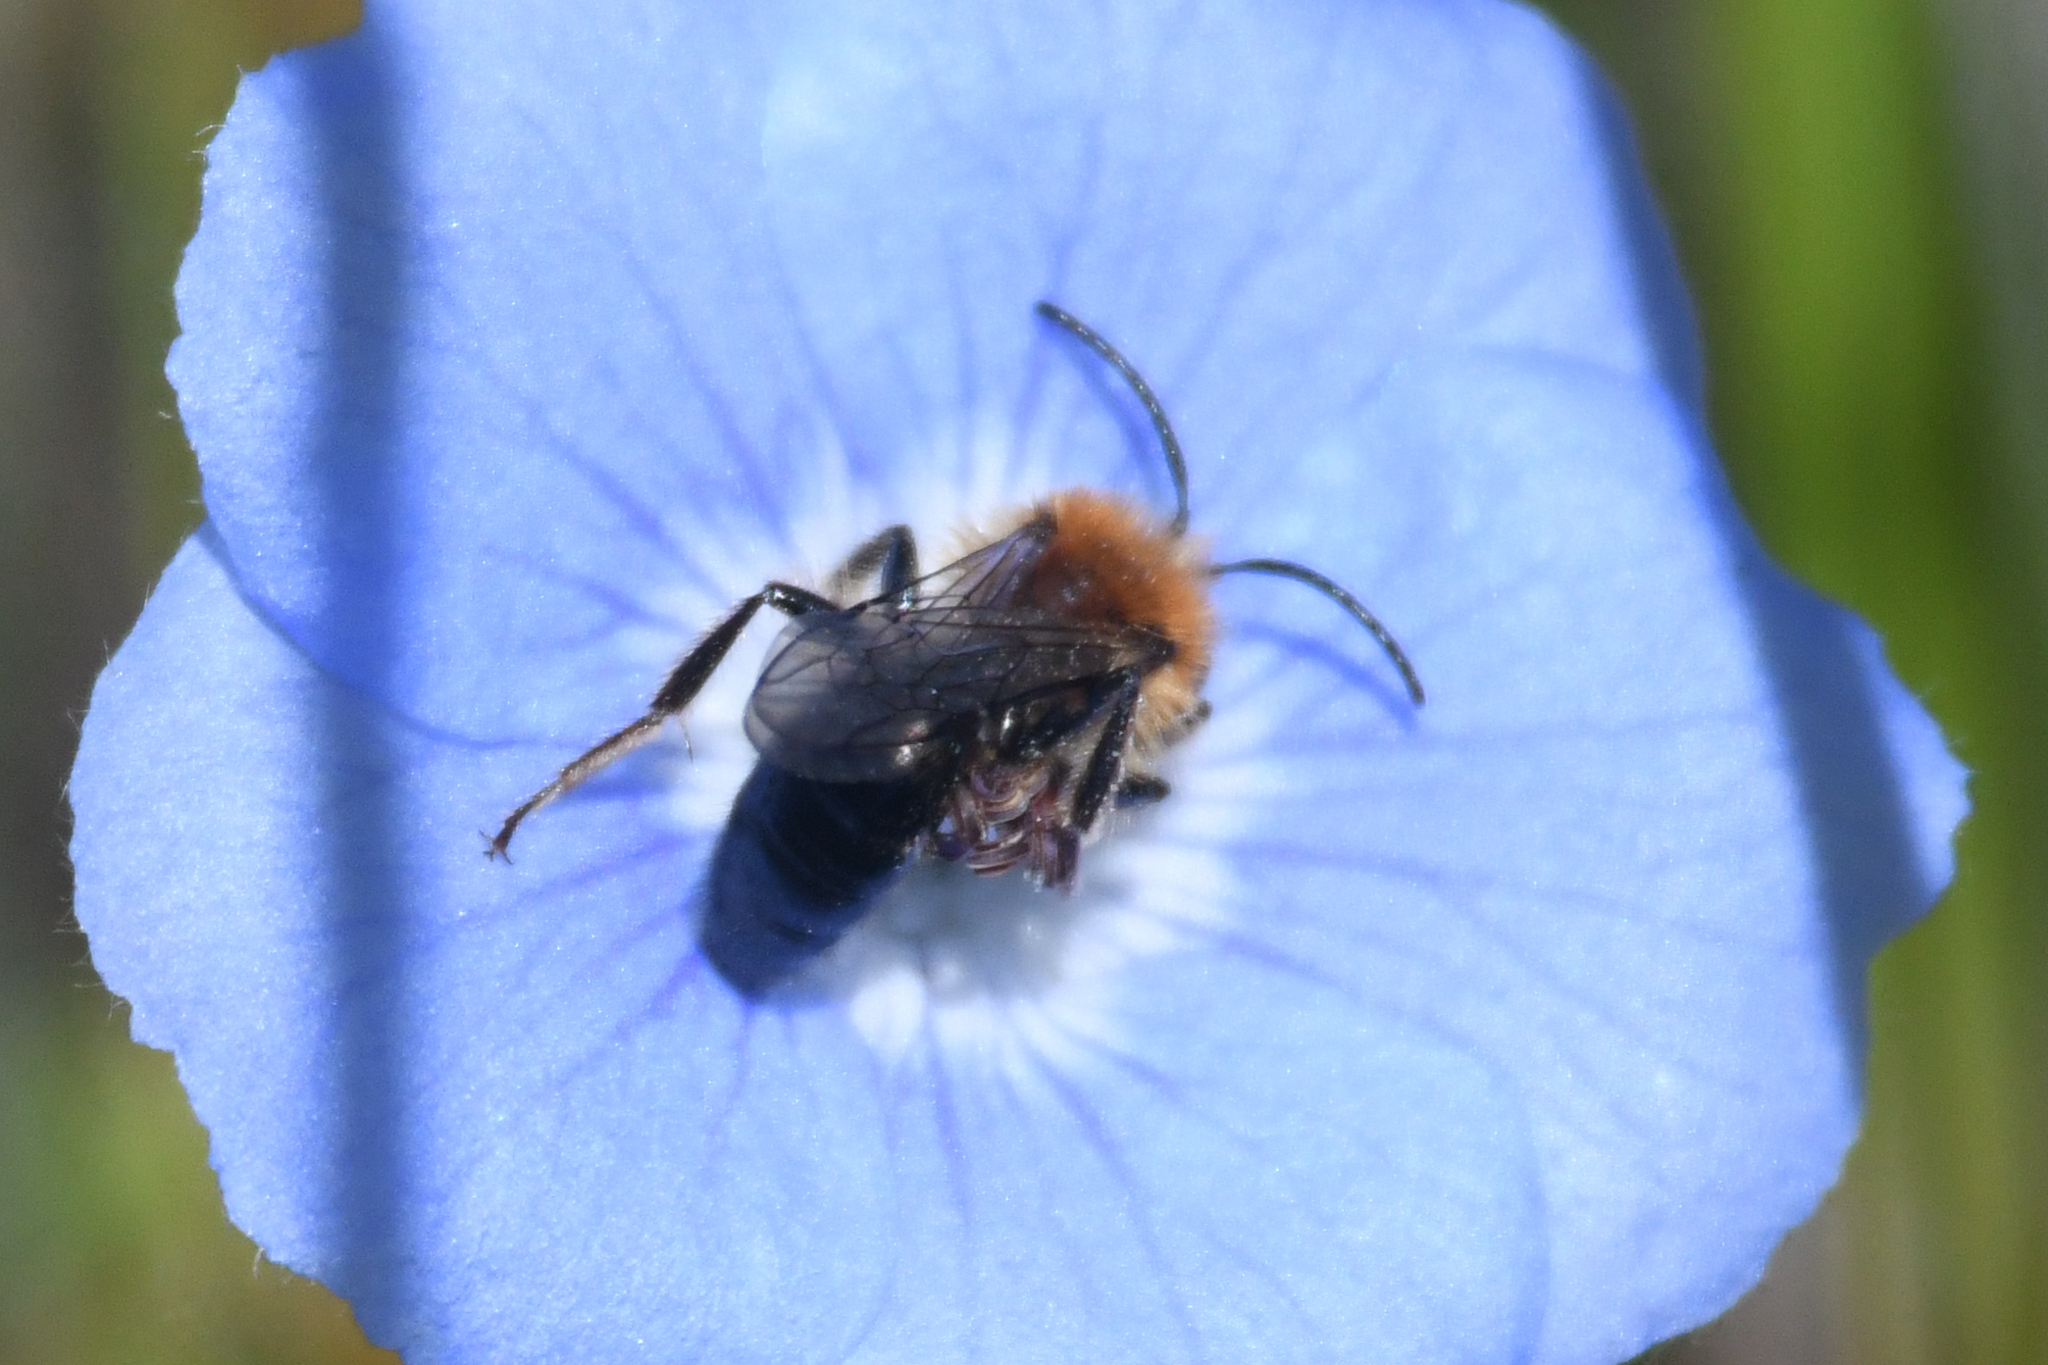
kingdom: Animalia
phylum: Arthropoda
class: Insecta
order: Hymenoptera
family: Andrenidae
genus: Andrena
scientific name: Andrena nigripes
